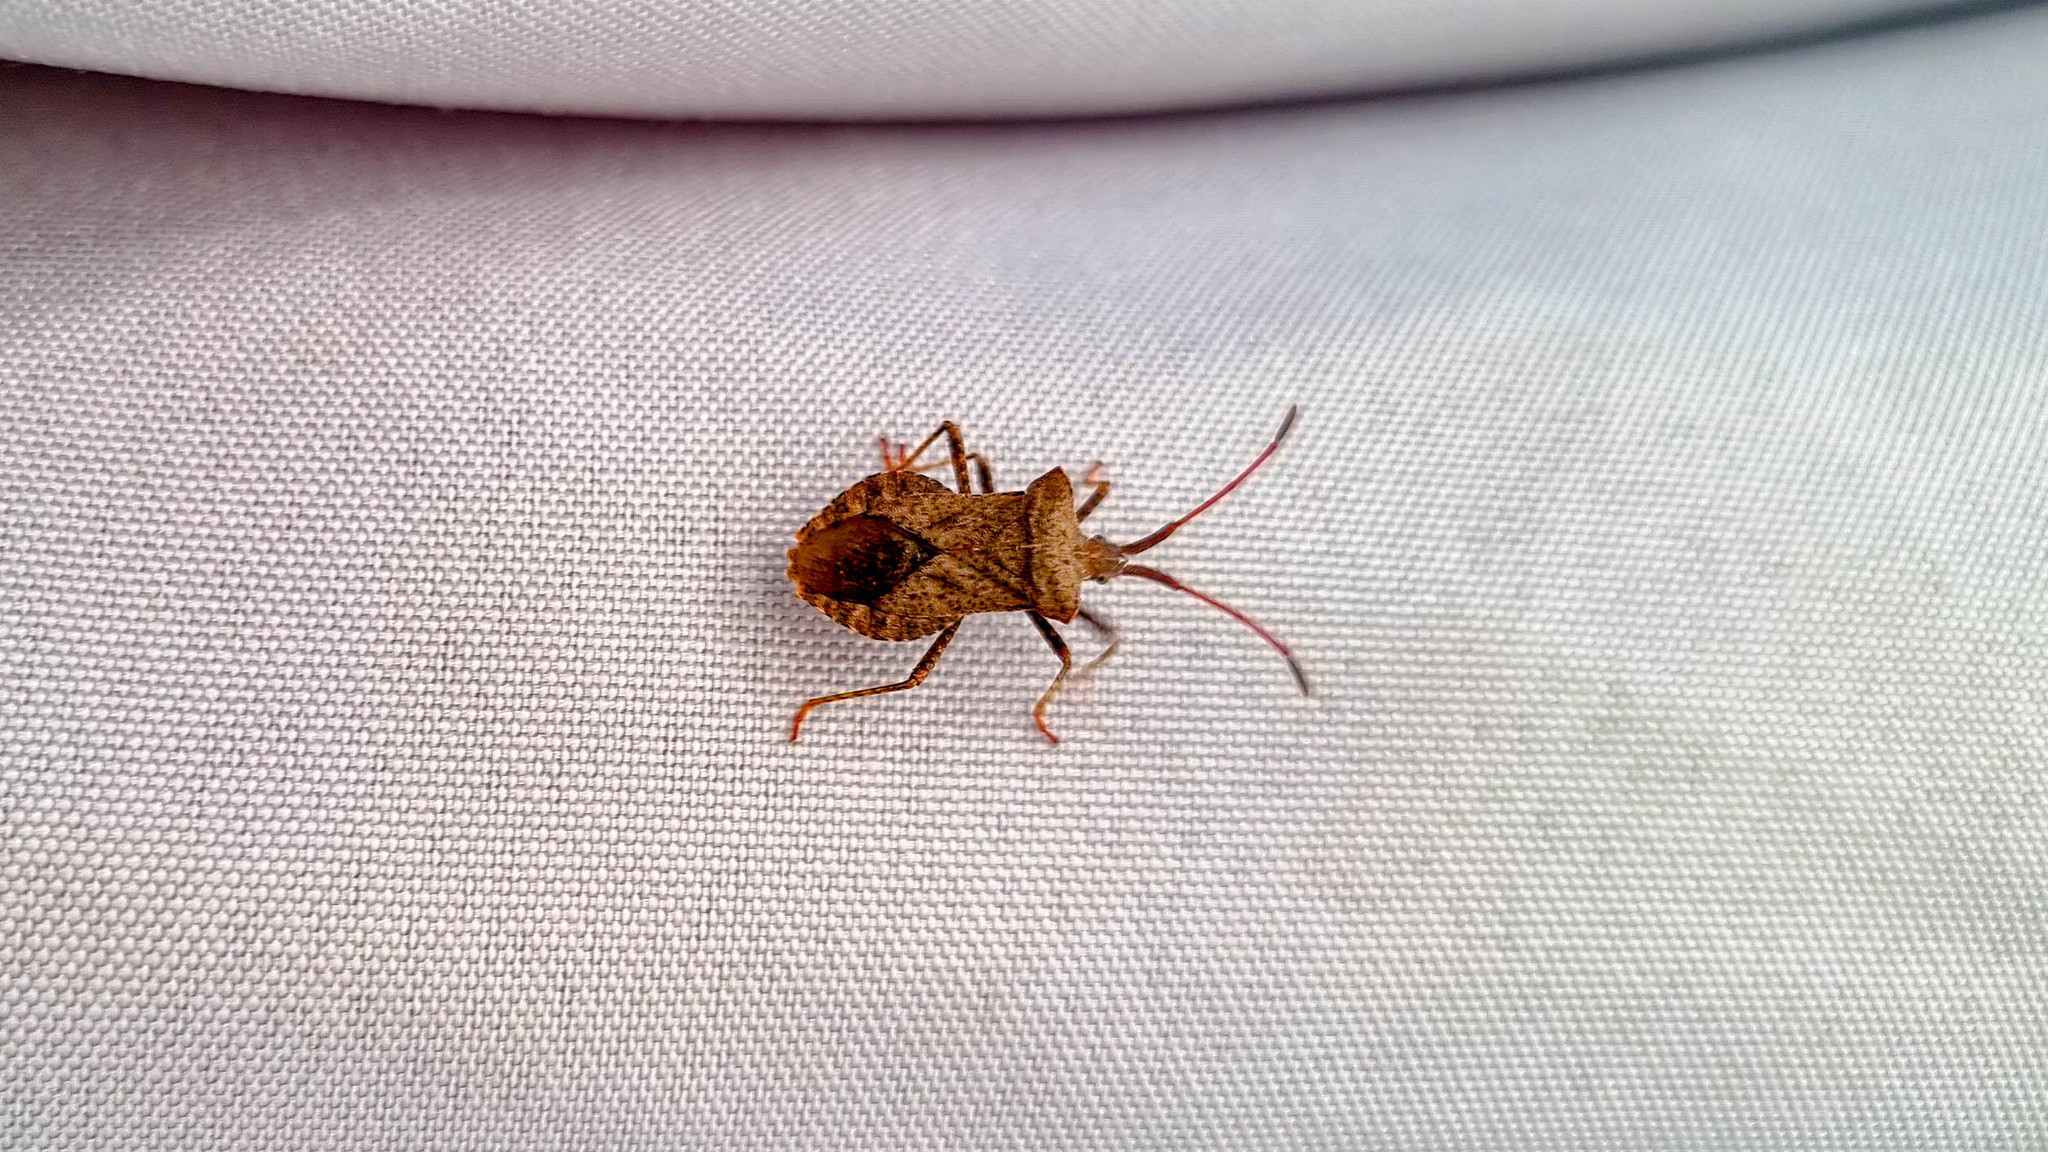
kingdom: Animalia
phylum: Arthropoda
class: Insecta
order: Hemiptera
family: Coreidae
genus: Coreus
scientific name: Coreus marginatus
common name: Dock bug
